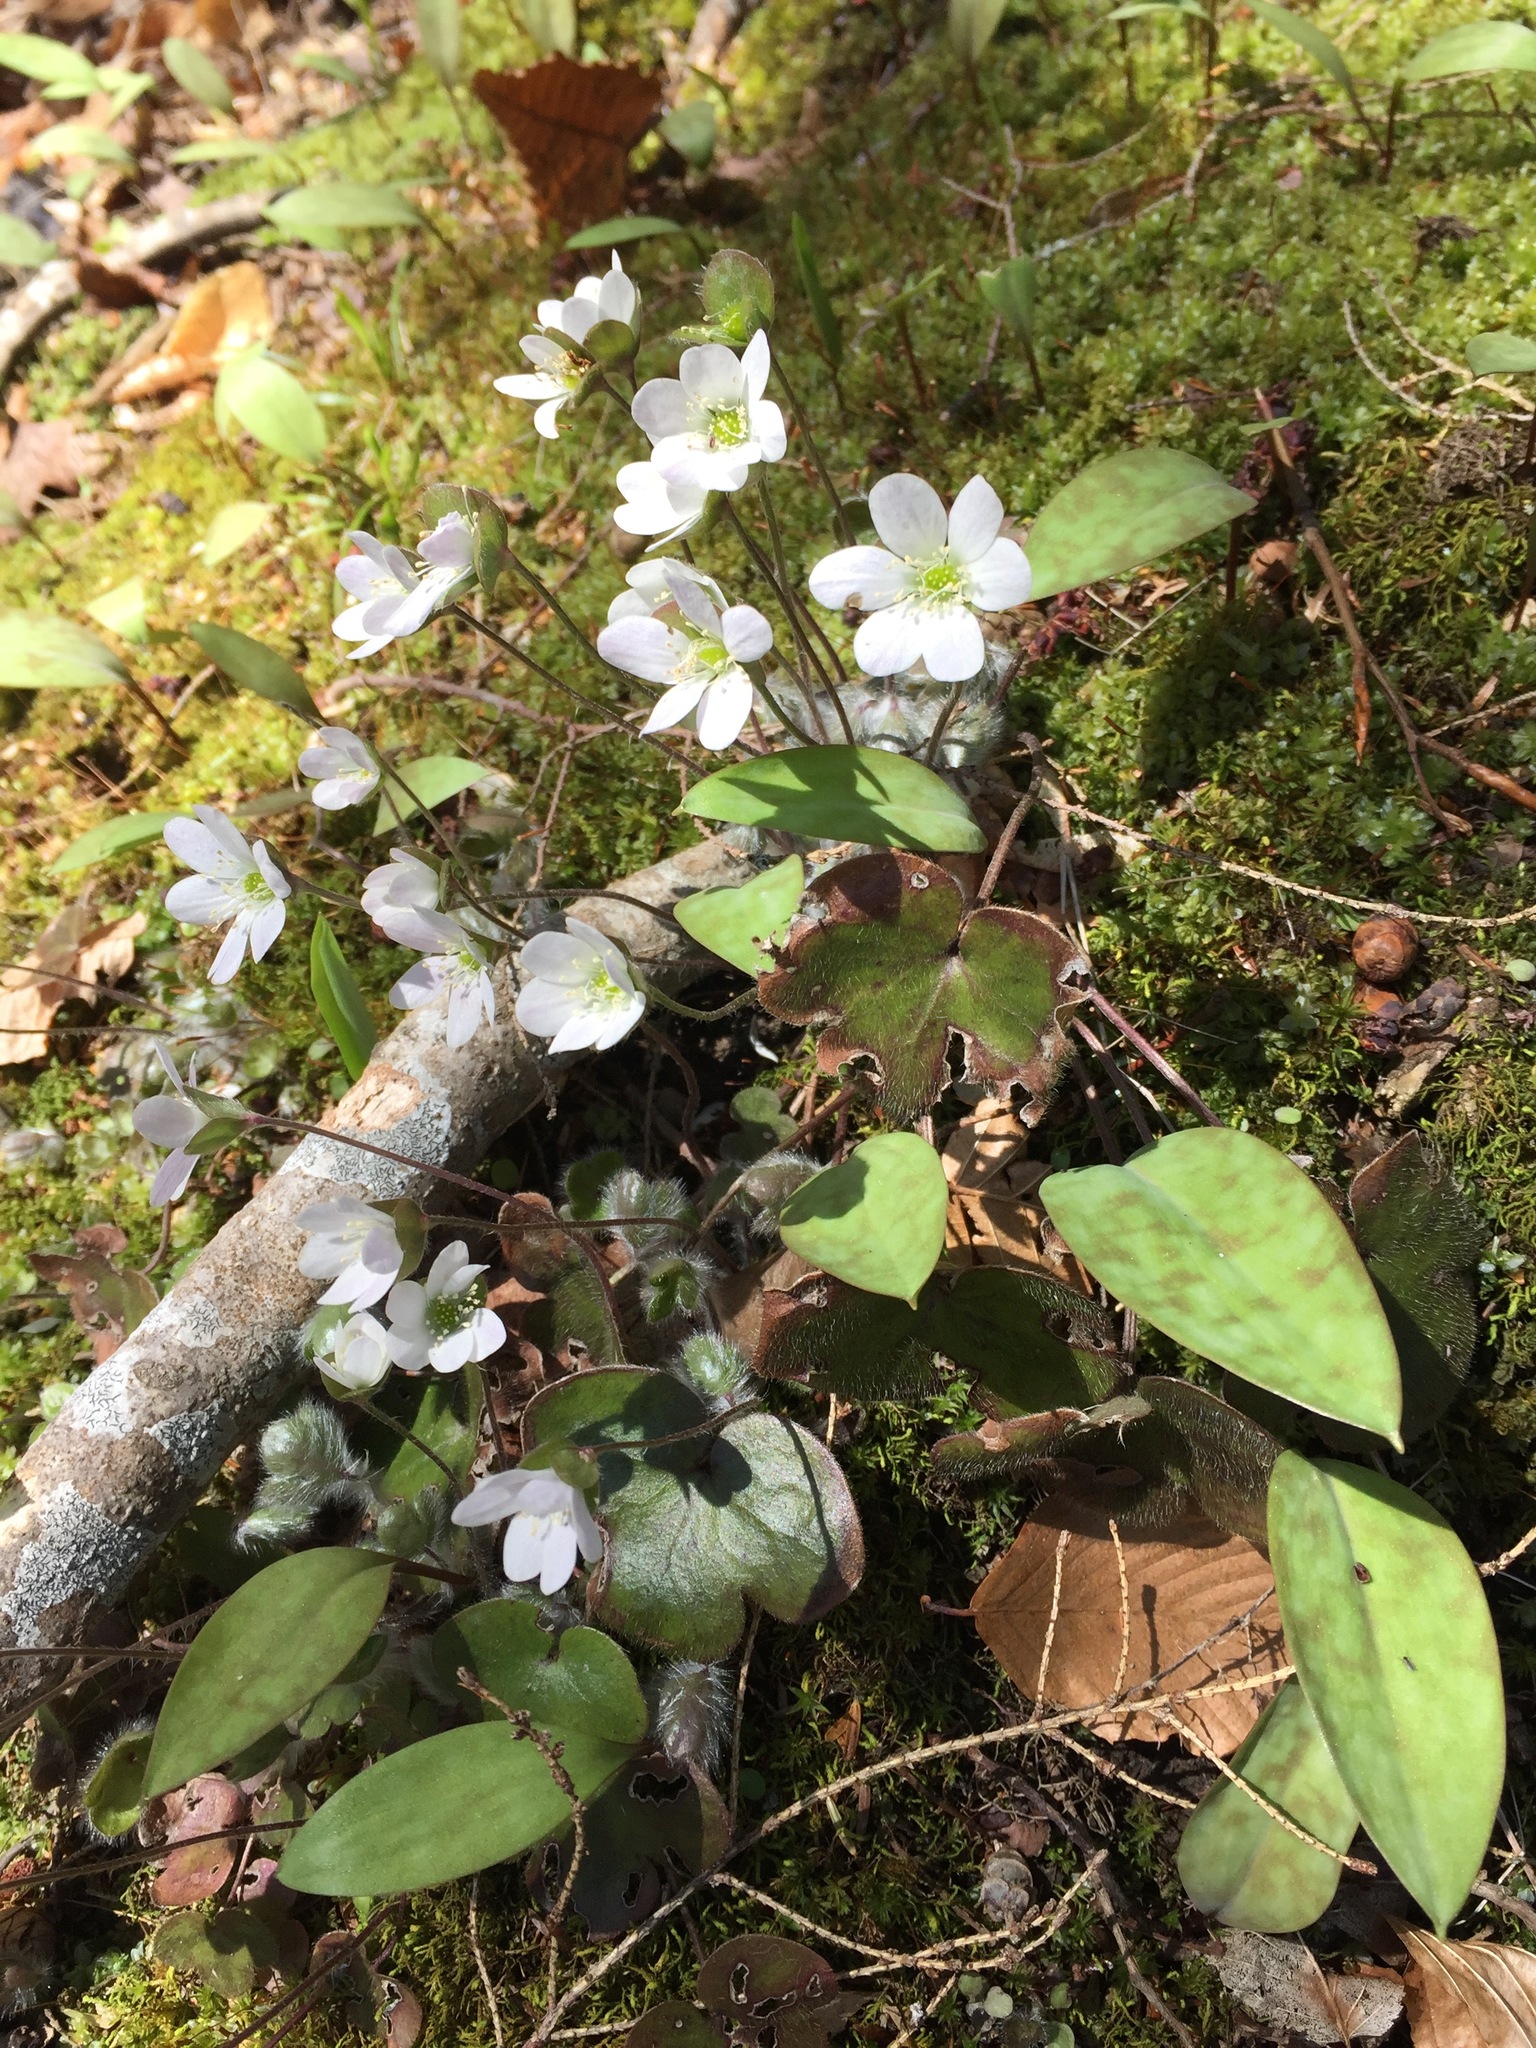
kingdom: Plantae
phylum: Tracheophyta
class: Magnoliopsida
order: Ranunculales
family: Ranunculaceae
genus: Hepatica
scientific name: Hepatica americana
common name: American hepatica
